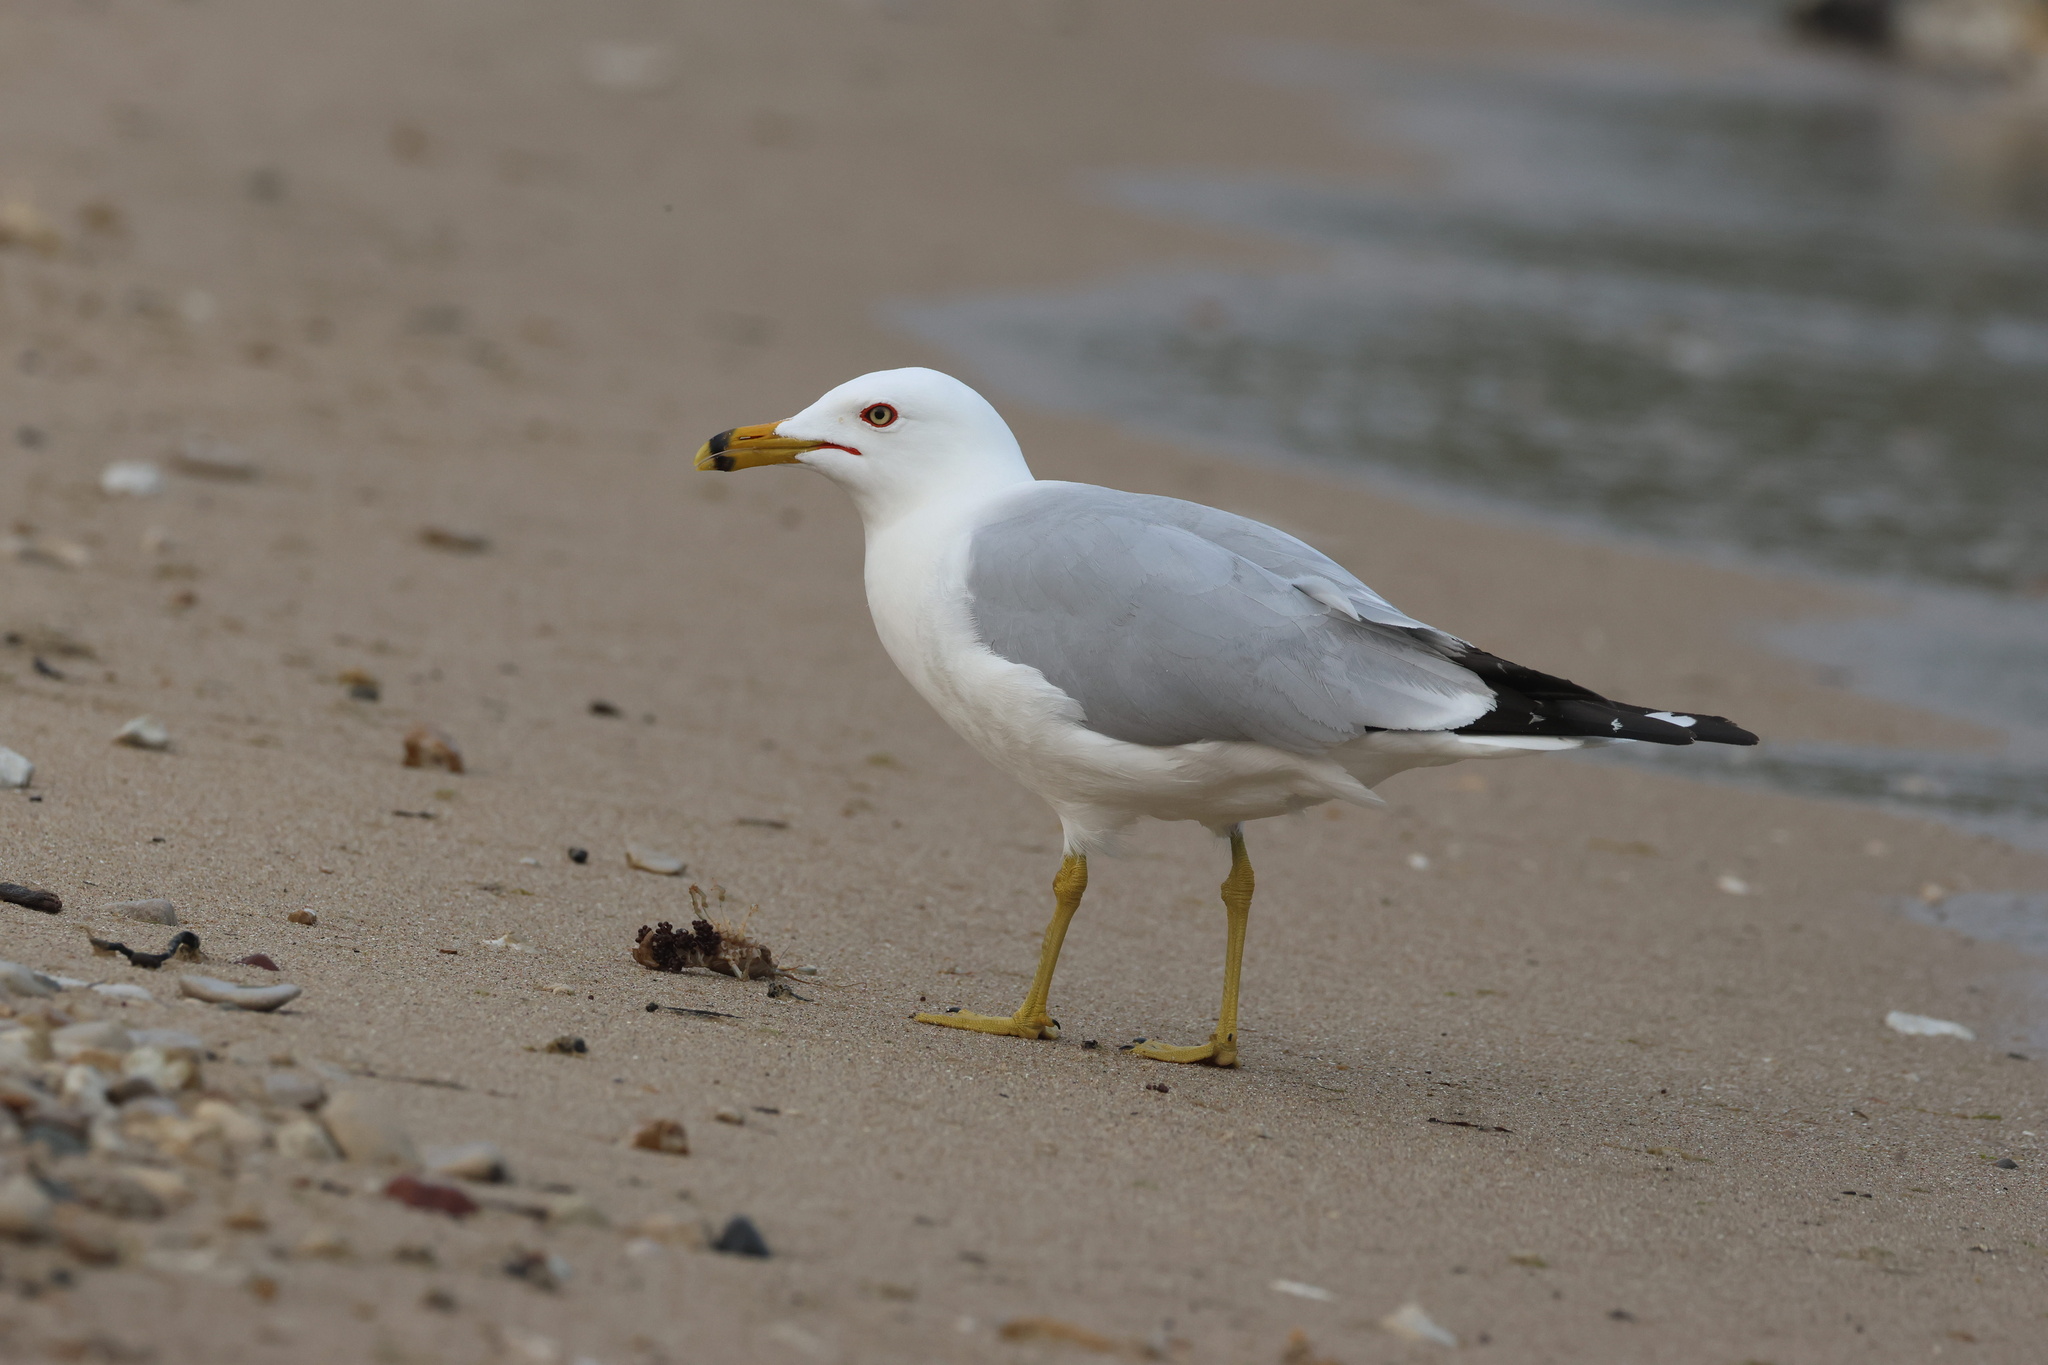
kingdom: Animalia
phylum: Chordata
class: Aves
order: Charadriiformes
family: Laridae
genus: Larus
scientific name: Larus delawarensis
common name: Ring-billed gull
